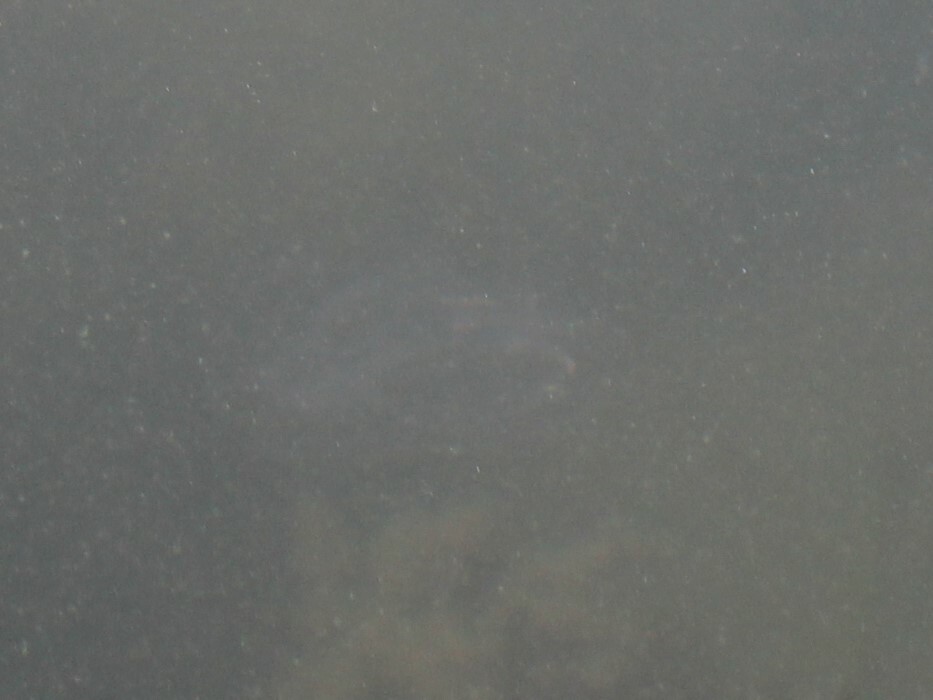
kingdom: Animalia
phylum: Ctenophora
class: Tentaculata
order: Lobata
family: Bolinopsidae
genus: Mnemiopsis
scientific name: Mnemiopsis leidyi
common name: American comb jelly
